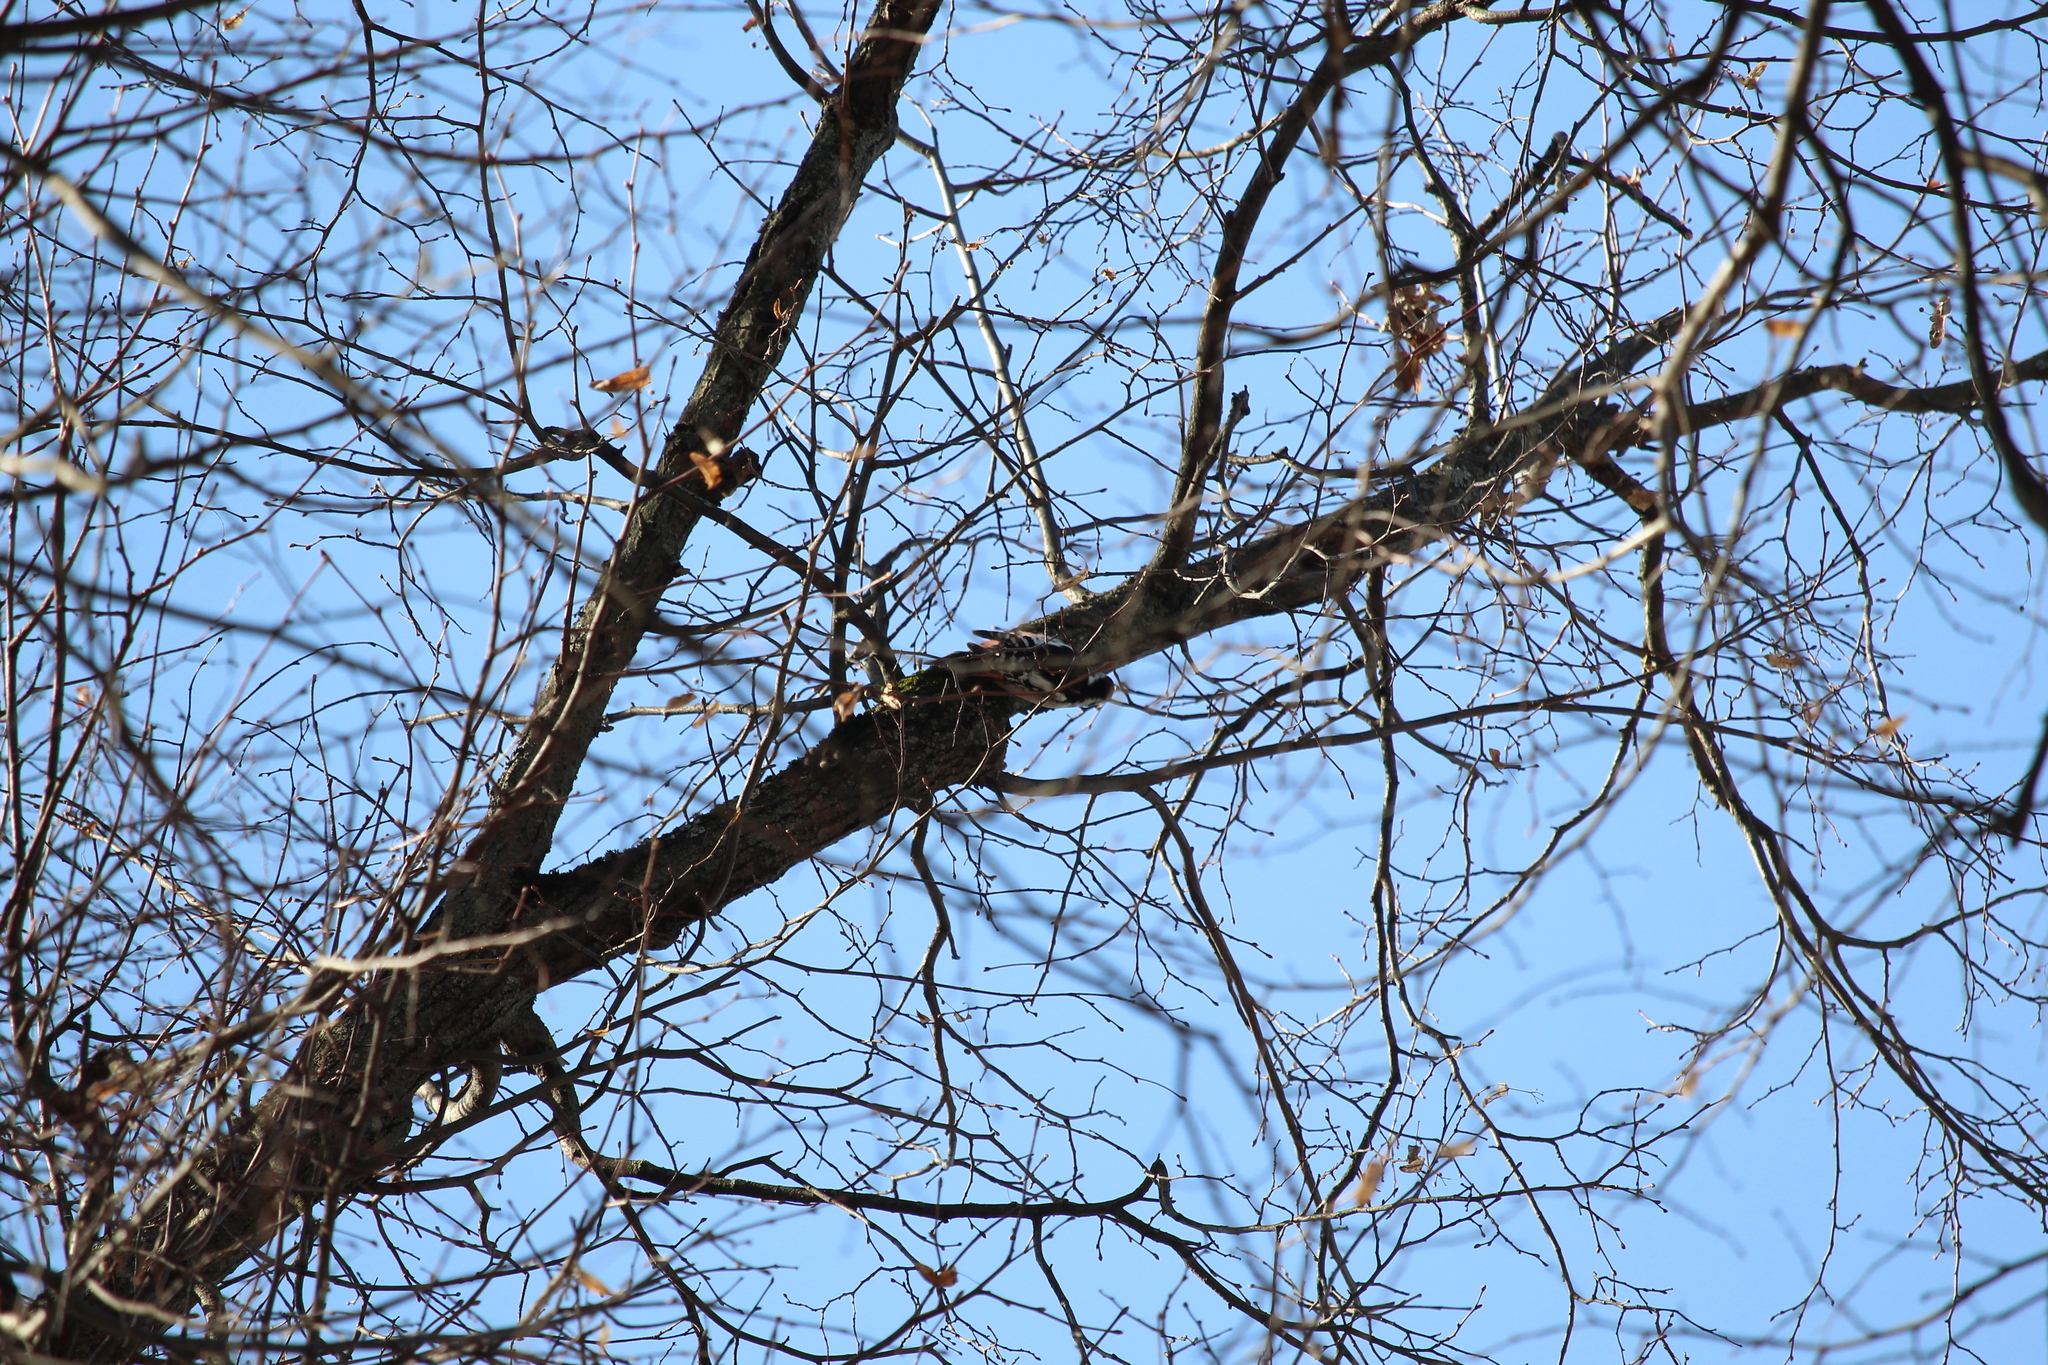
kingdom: Animalia
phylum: Chordata
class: Aves
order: Piciformes
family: Picidae
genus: Dendrocoptes
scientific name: Dendrocoptes medius
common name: Middle spotted woodpecker
